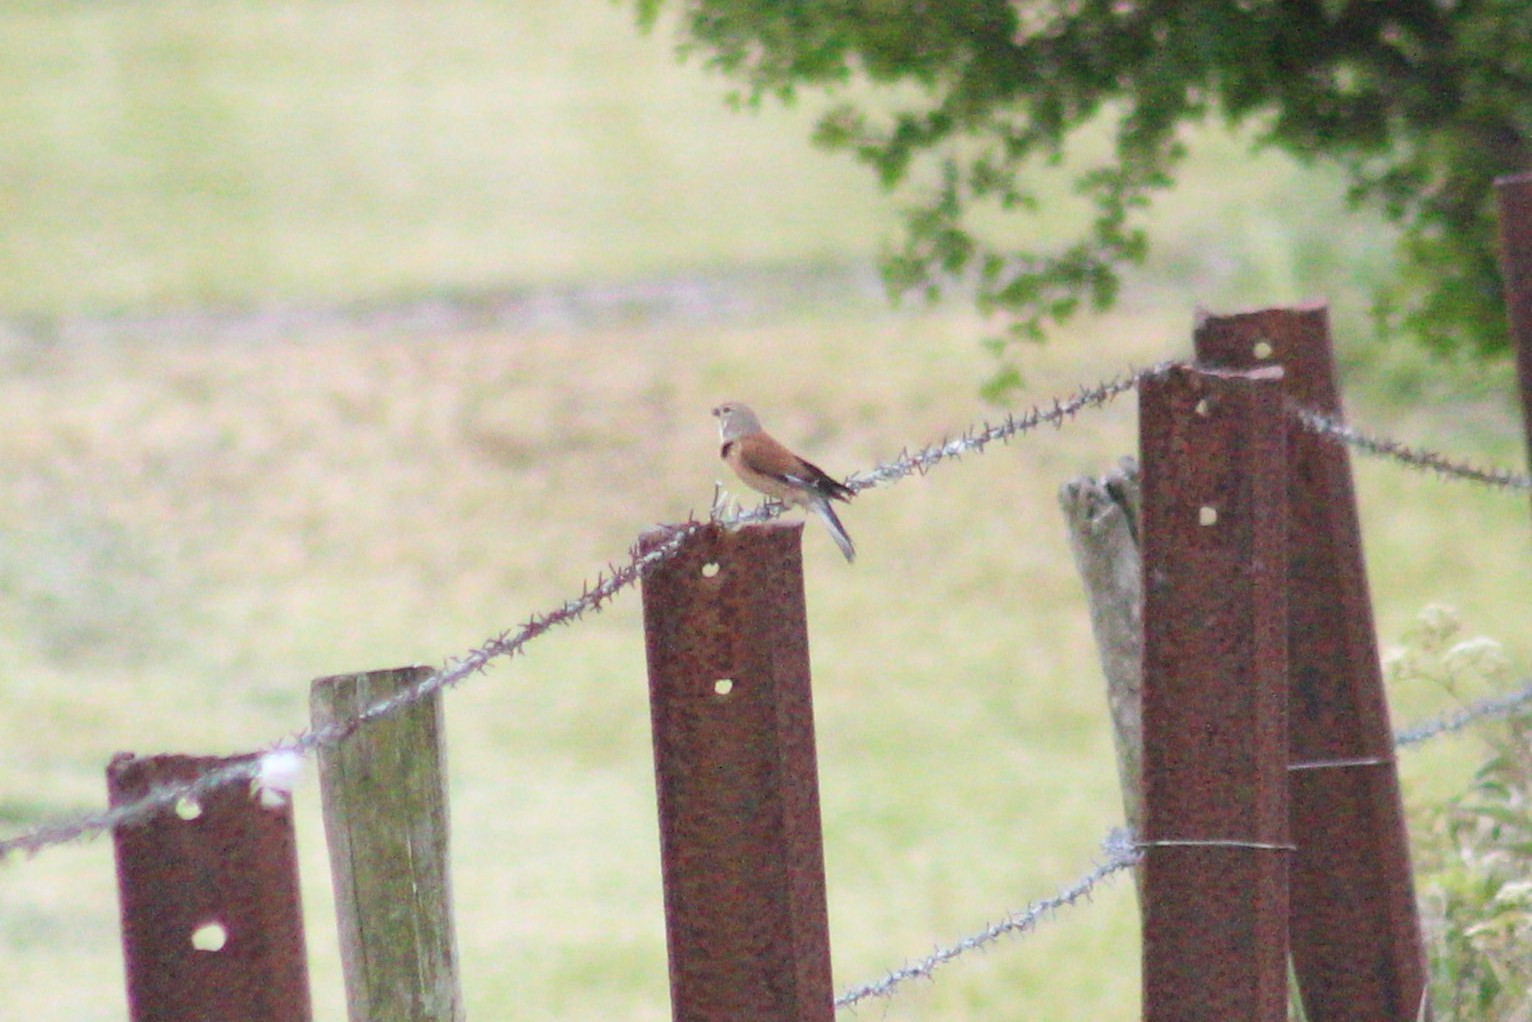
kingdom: Animalia
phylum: Chordata
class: Aves
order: Passeriformes
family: Fringillidae
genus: Linaria
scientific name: Linaria cannabina
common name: Common linnet
